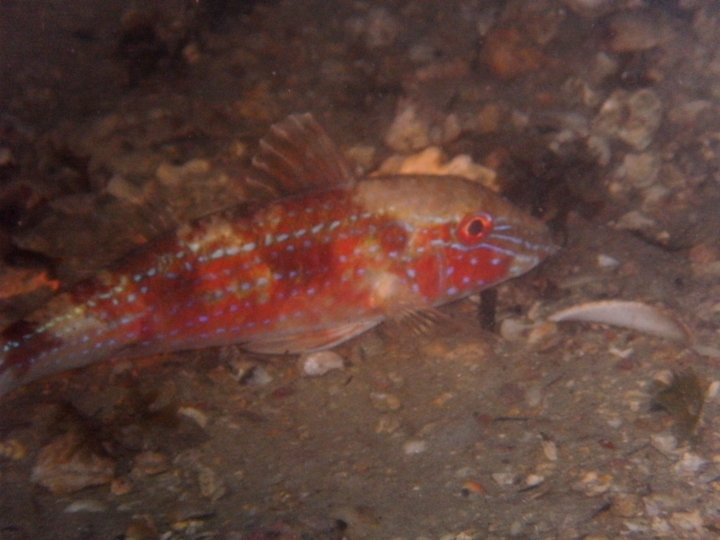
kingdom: Animalia
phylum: Chordata
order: Perciformes
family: Mullidae
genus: Pseudupeneus
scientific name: Pseudupeneus maculatus
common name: Spotted goatfish
